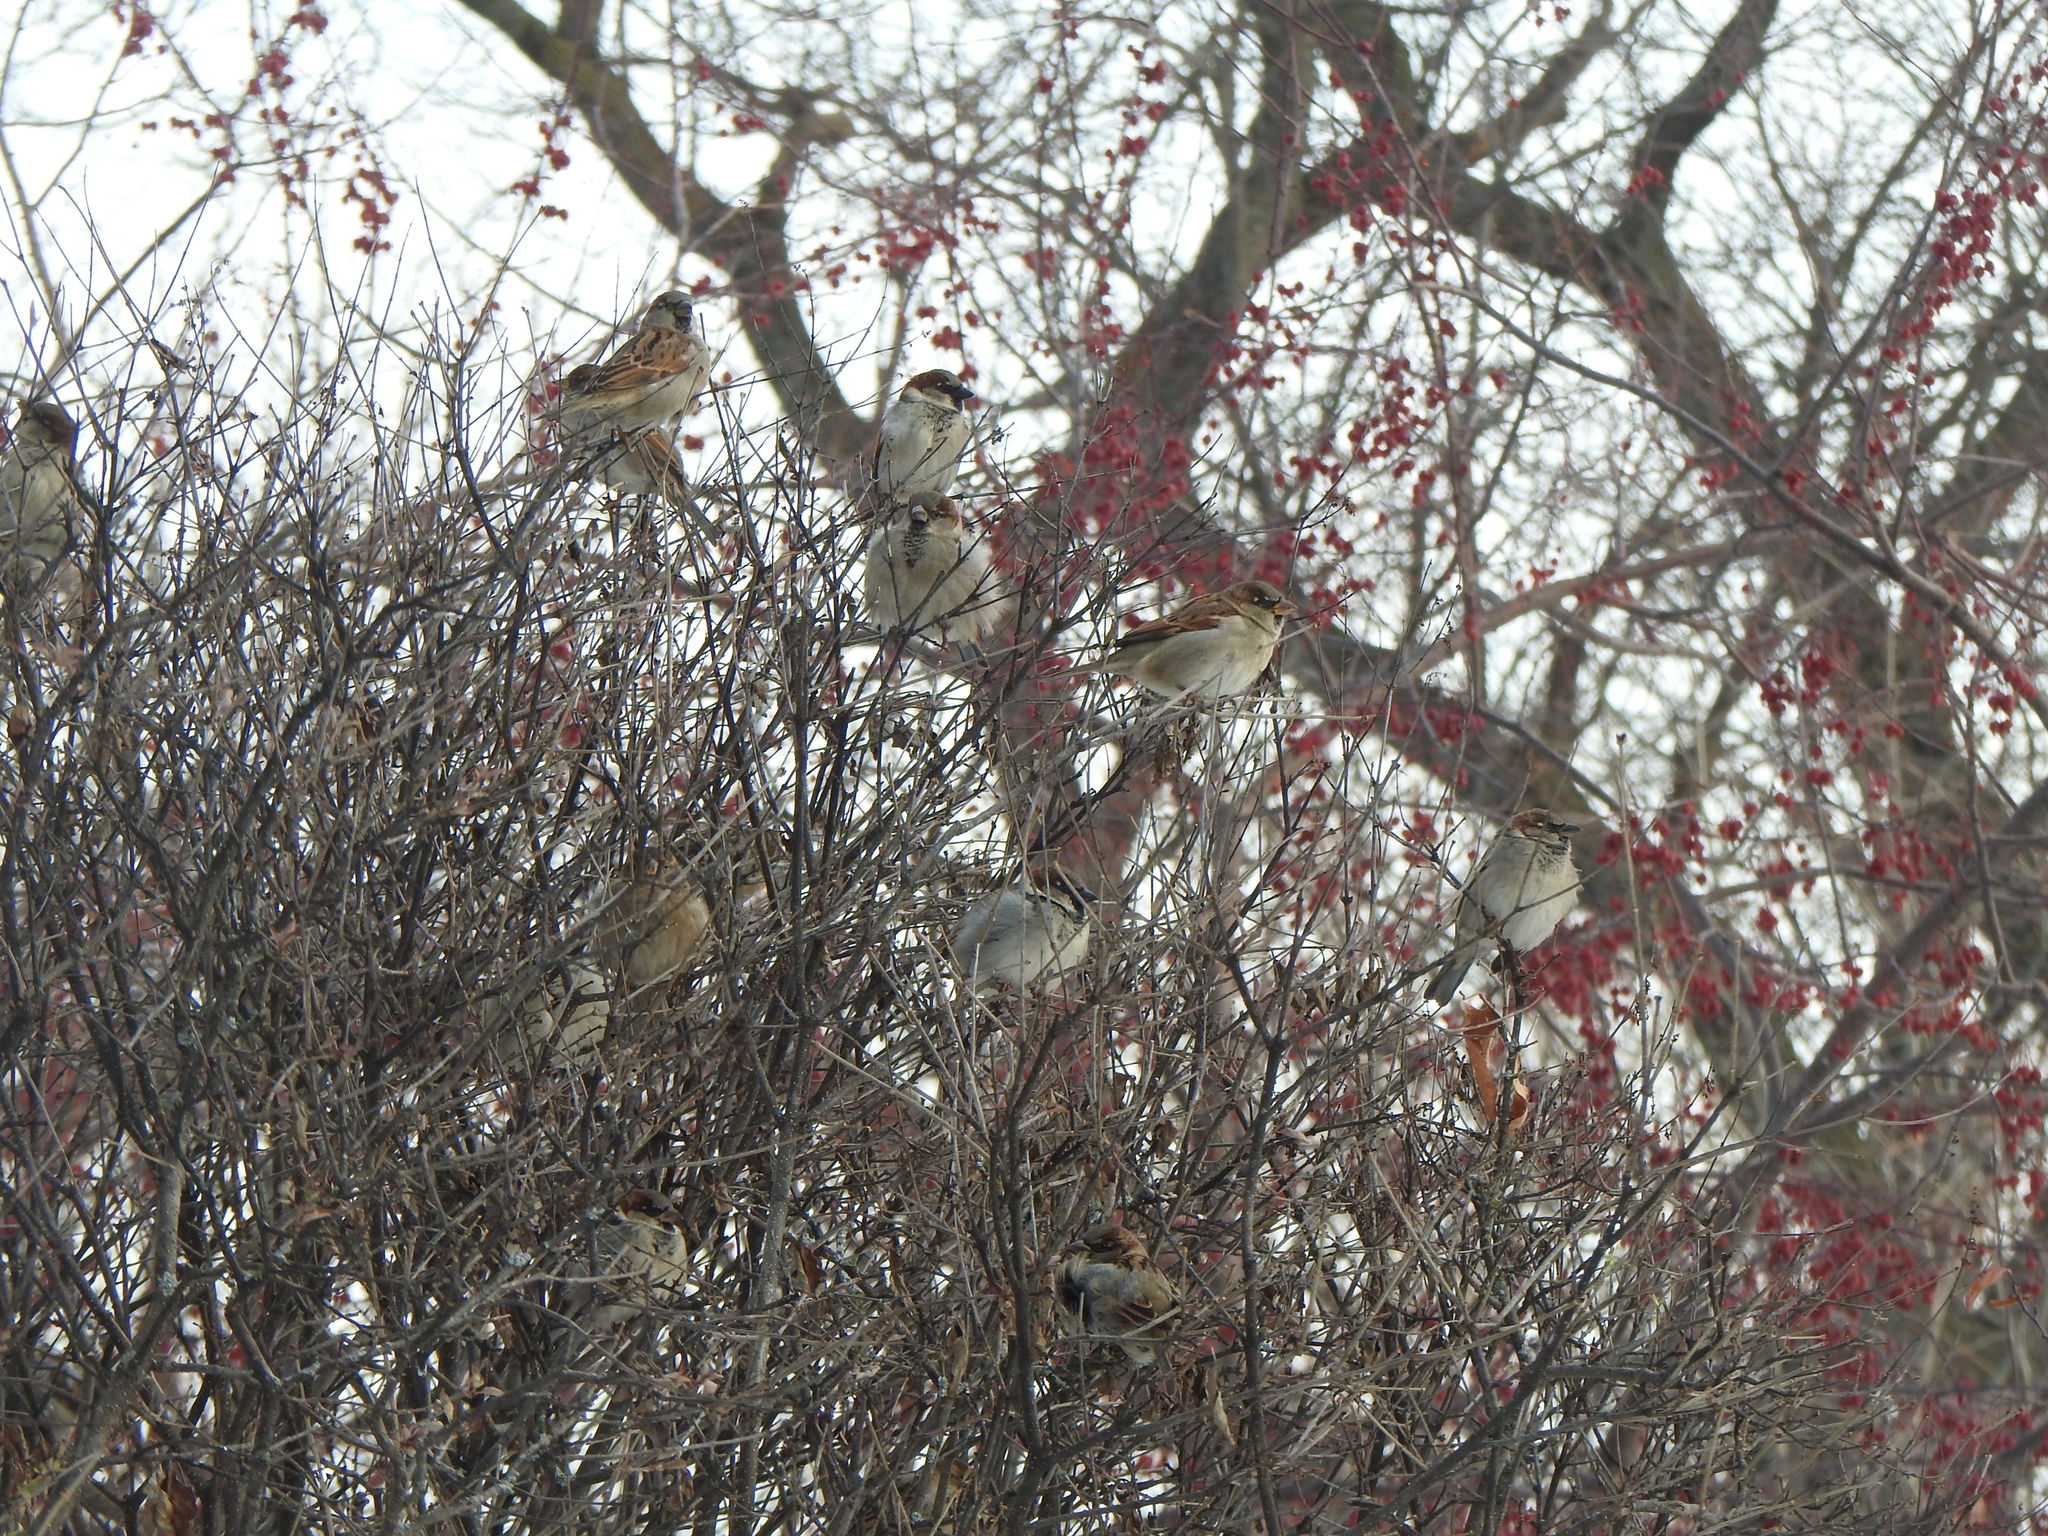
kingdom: Animalia
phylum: Chordata
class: Aves
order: Passeriformes
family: Passeridae
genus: Passer
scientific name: Passer domesticus
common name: House sparrow
